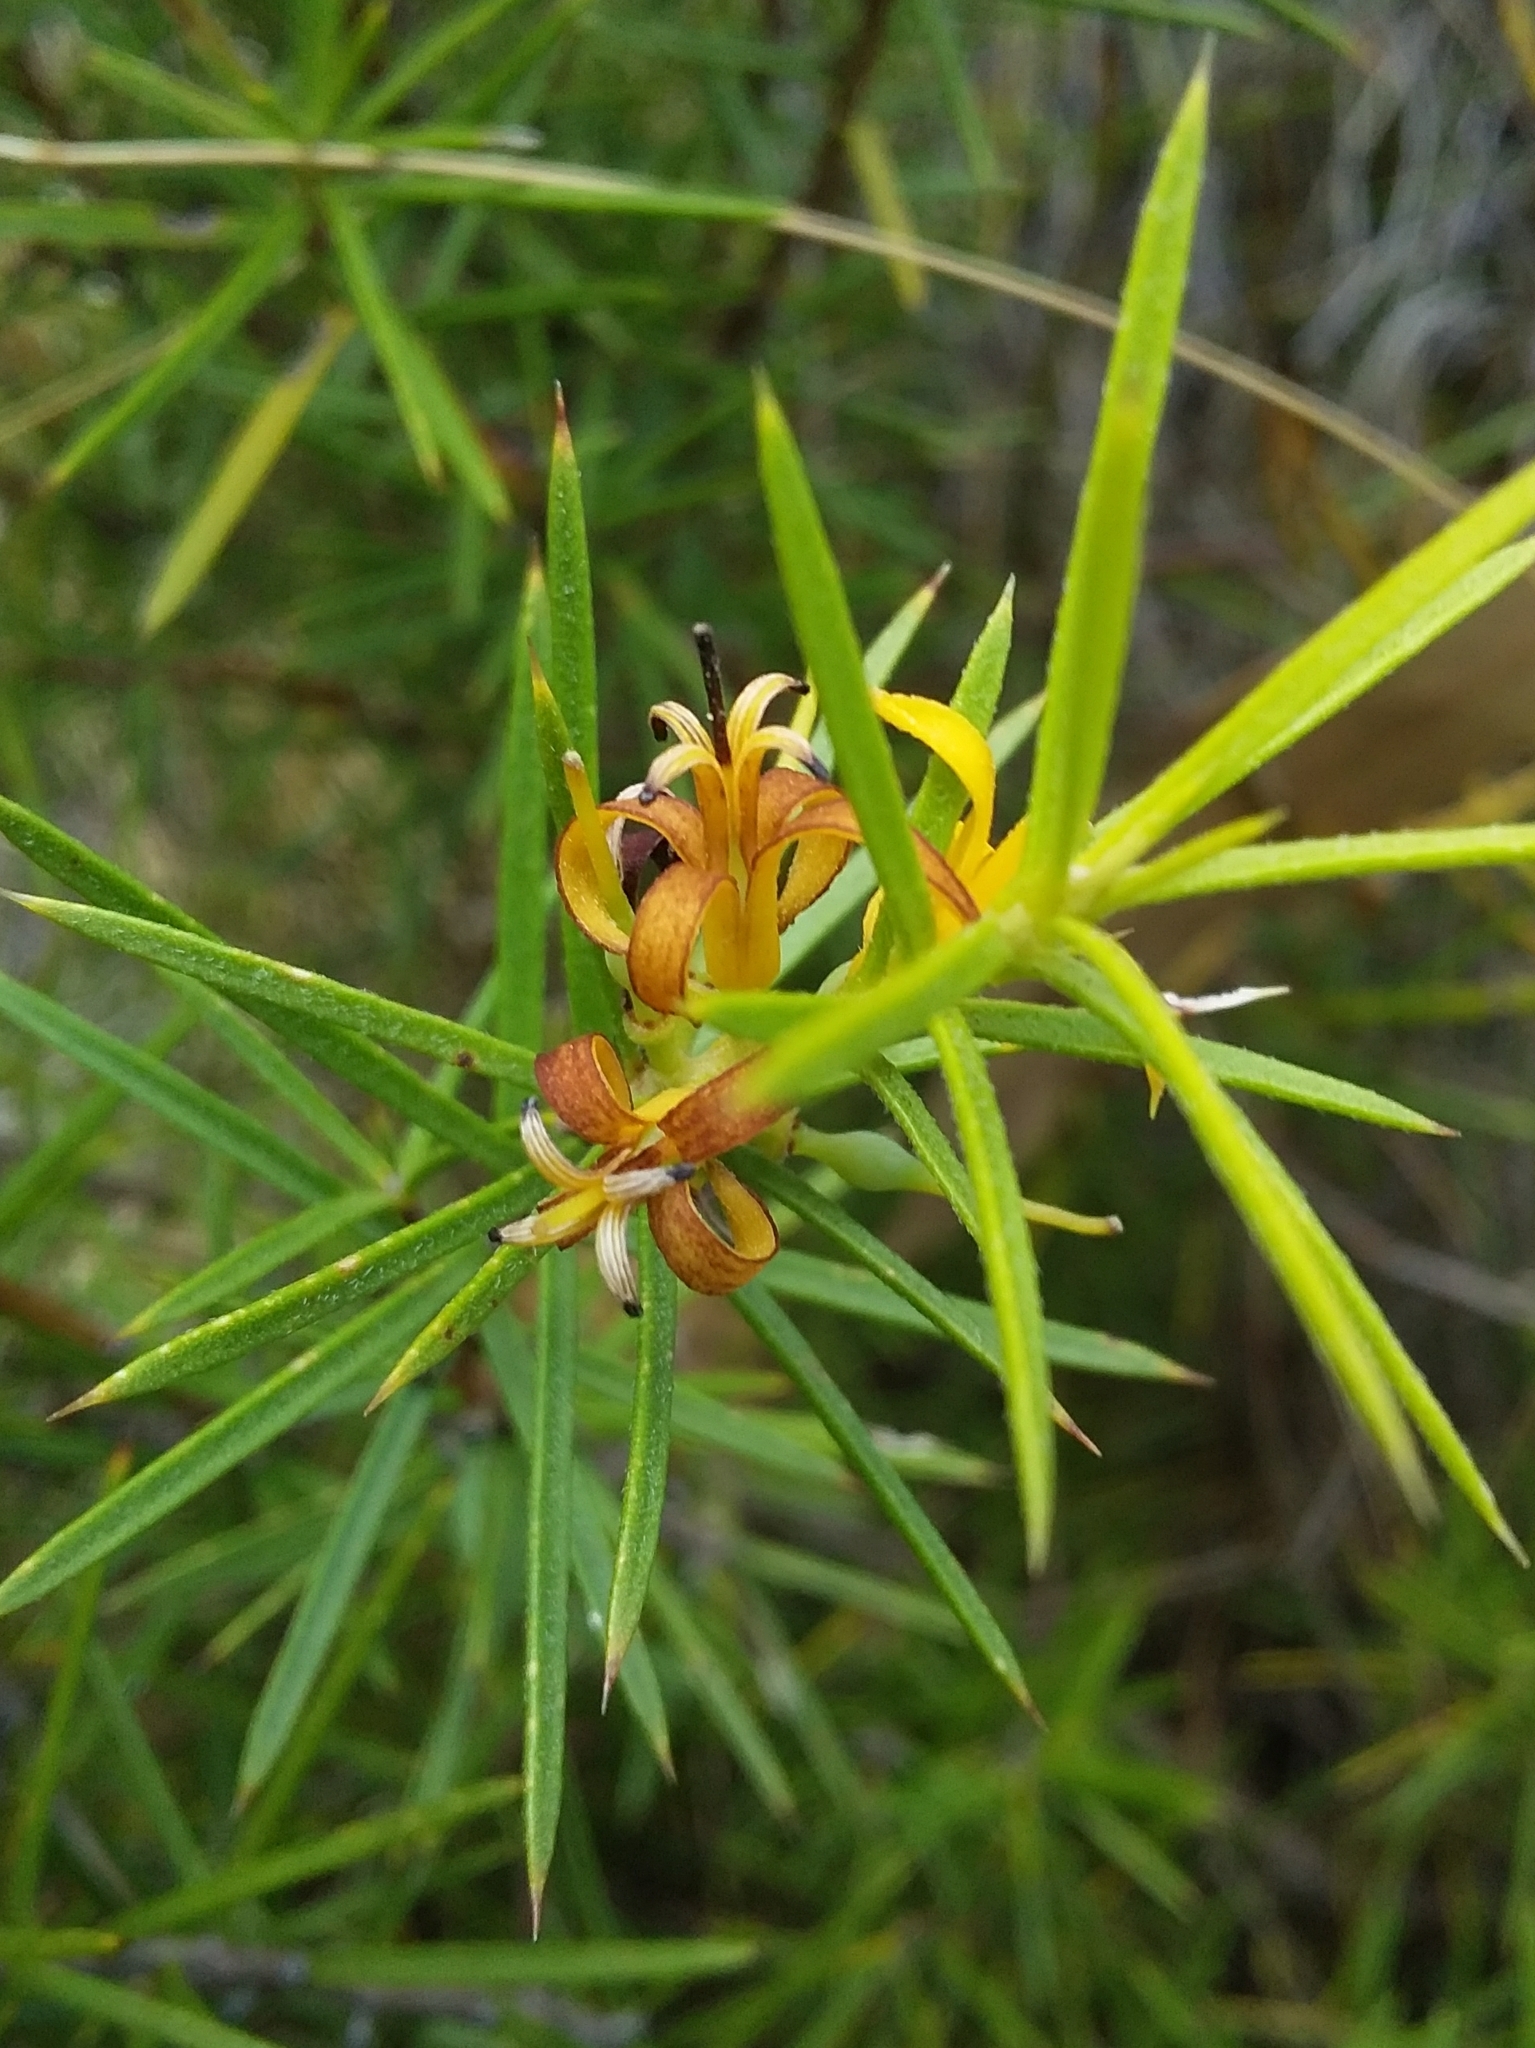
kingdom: Plantae
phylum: Tracheophyta
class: Magnoliopsida
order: Proteales
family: Proteaceae
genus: Persoonia
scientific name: Persoonia juniperina
